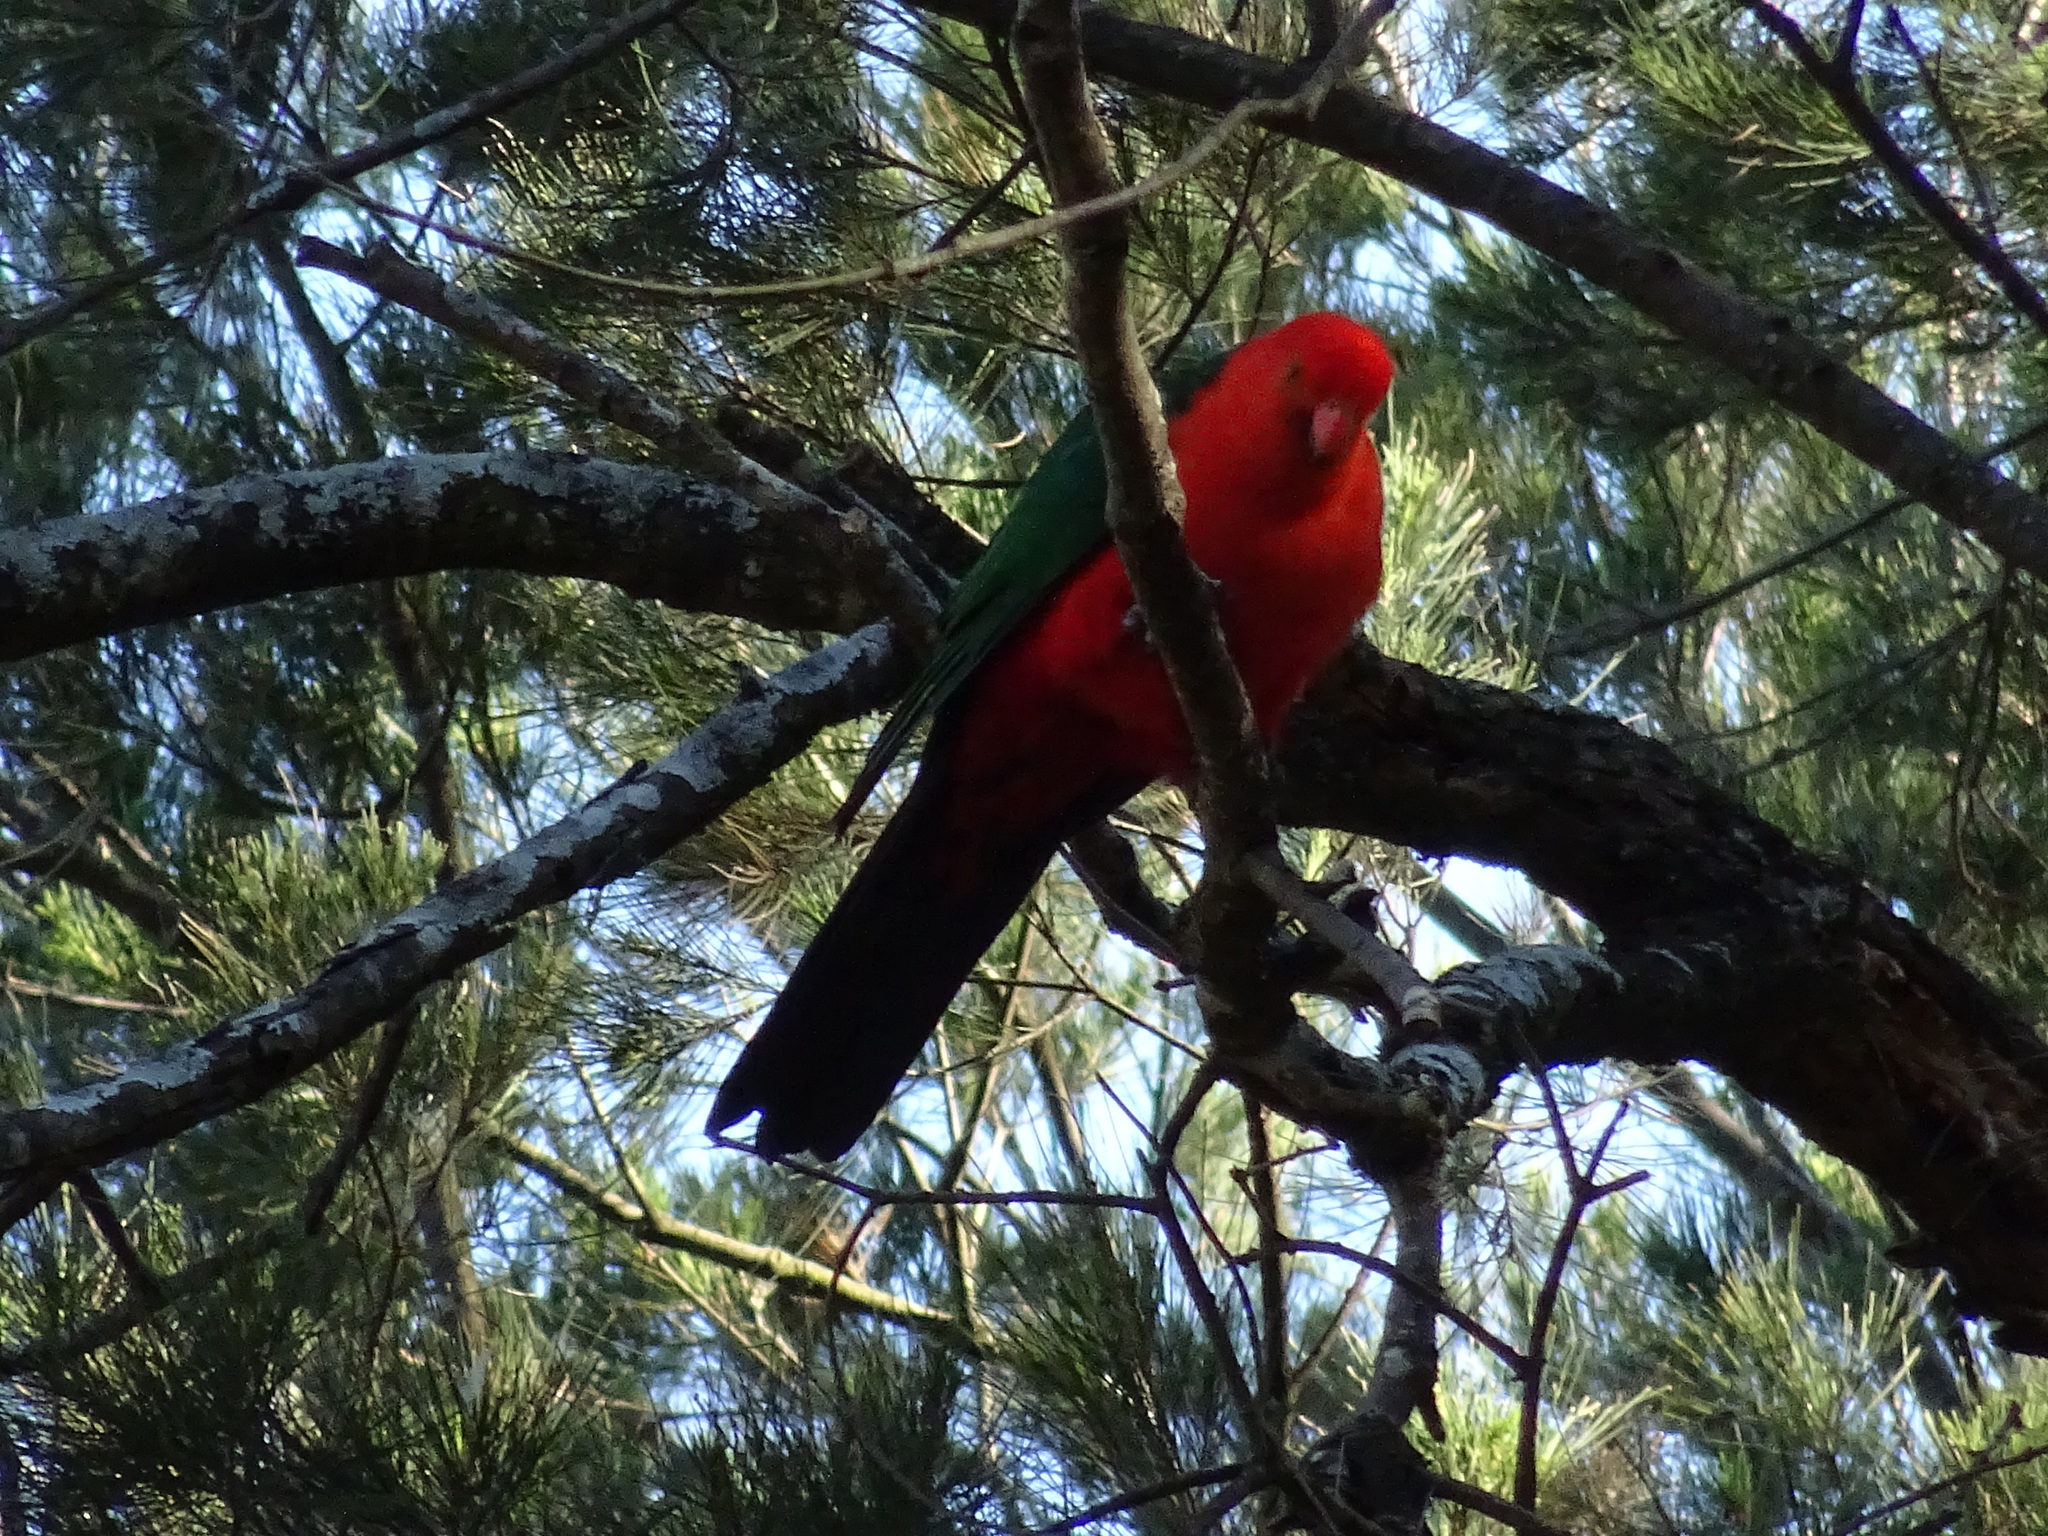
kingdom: Animalia
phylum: Chordata
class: Aves
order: Psittaciformes
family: Psittacidae
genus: Alisterus
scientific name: Alisterus scapularis
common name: Australian king parrot
